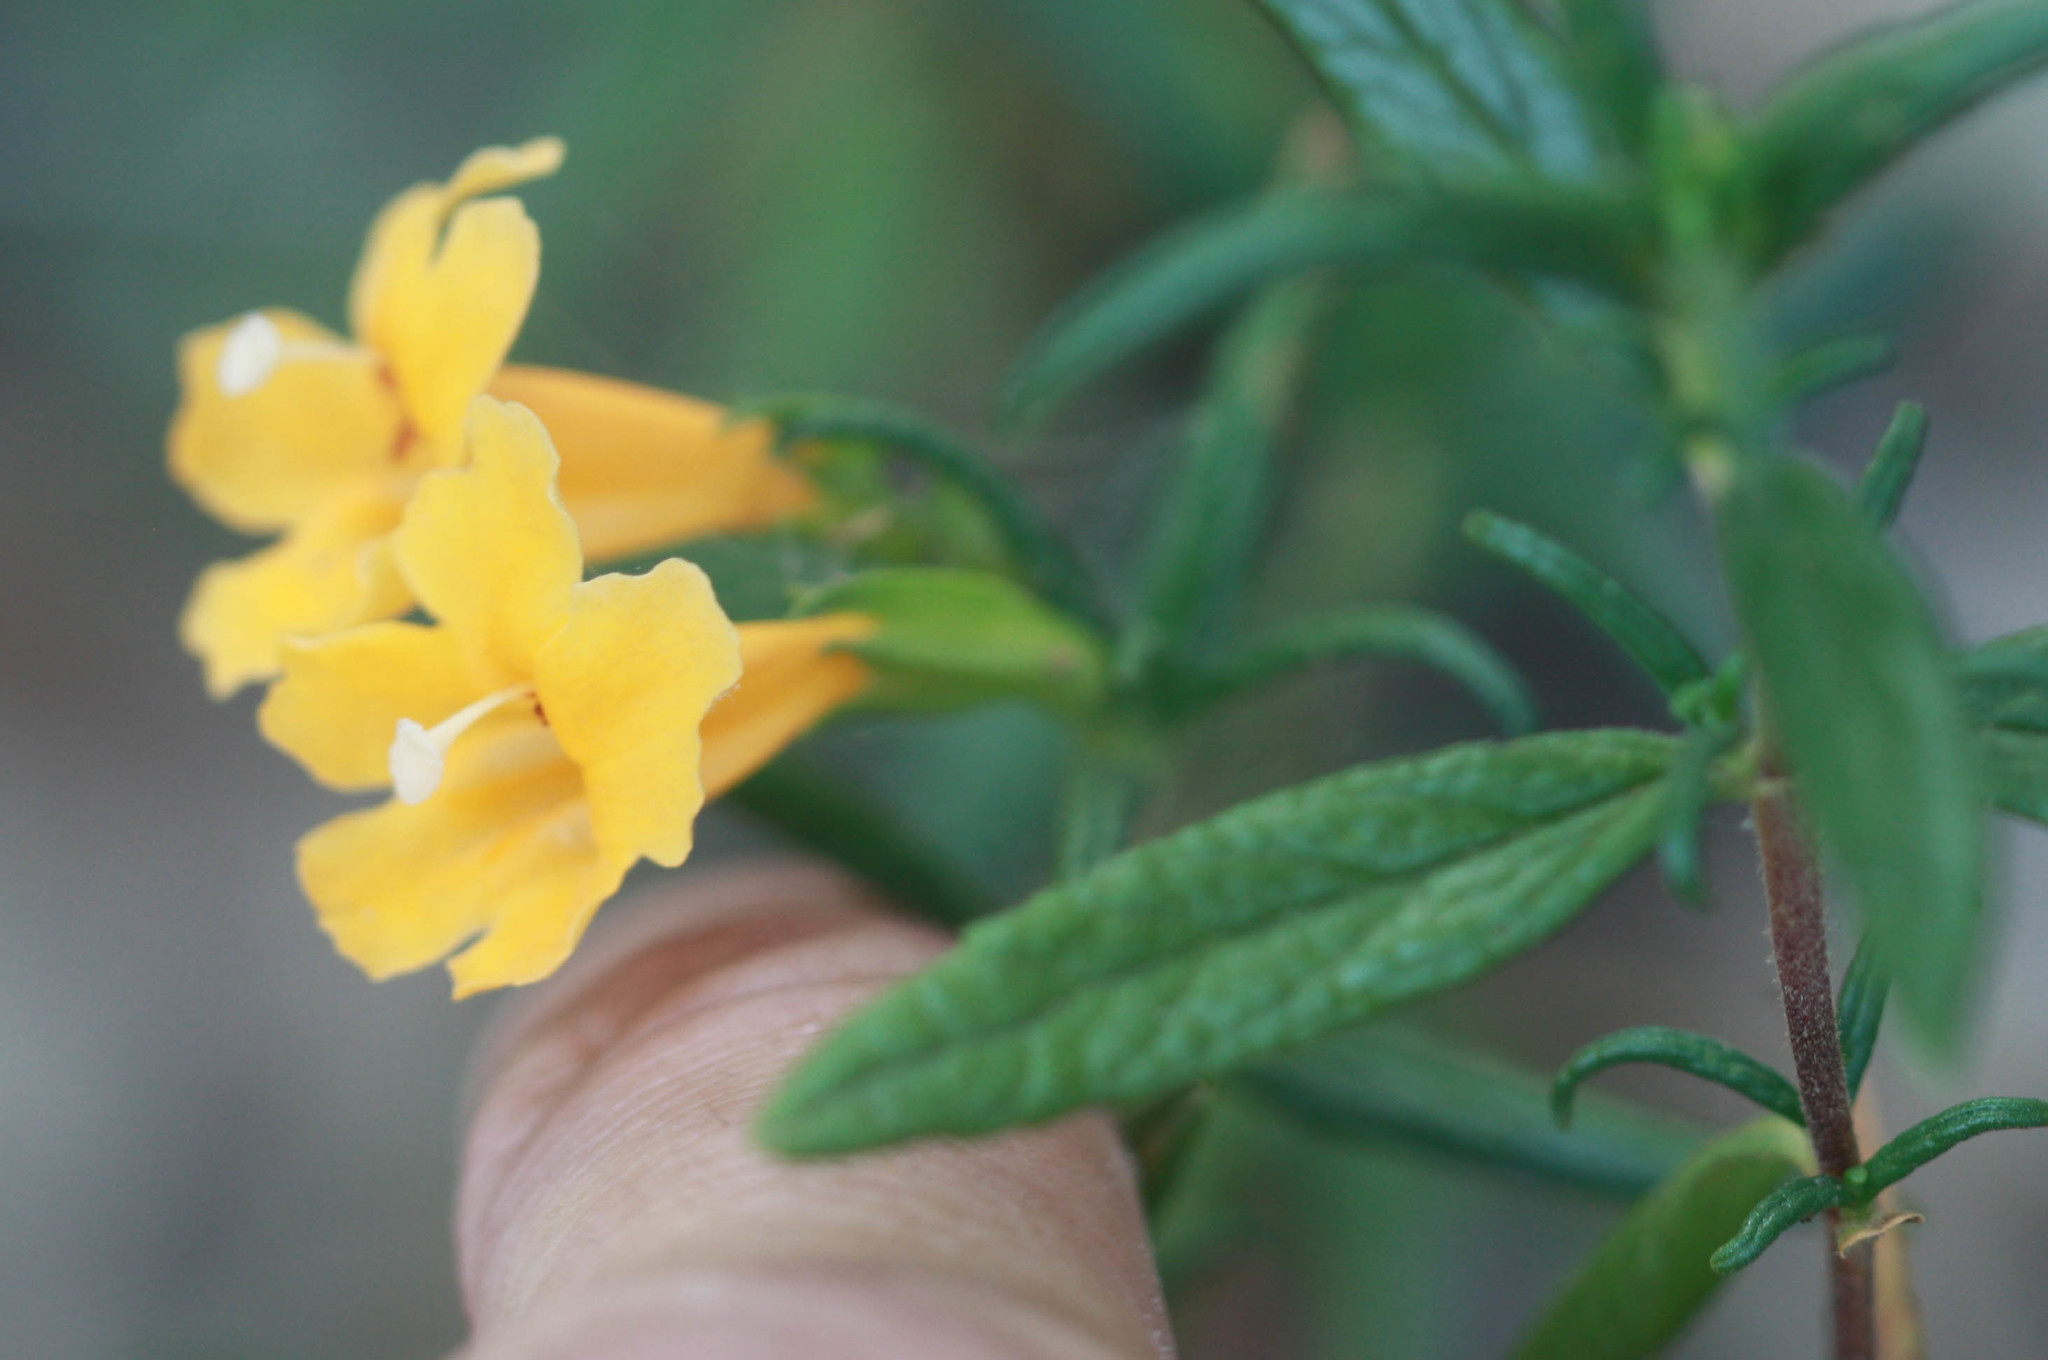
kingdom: Plantae
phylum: Tracheophyta
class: Magnoliopsida
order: Lamiales
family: Phrymaceae
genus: Diplacus
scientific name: Diplacus aurantiacus
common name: Bush monkey-flower
